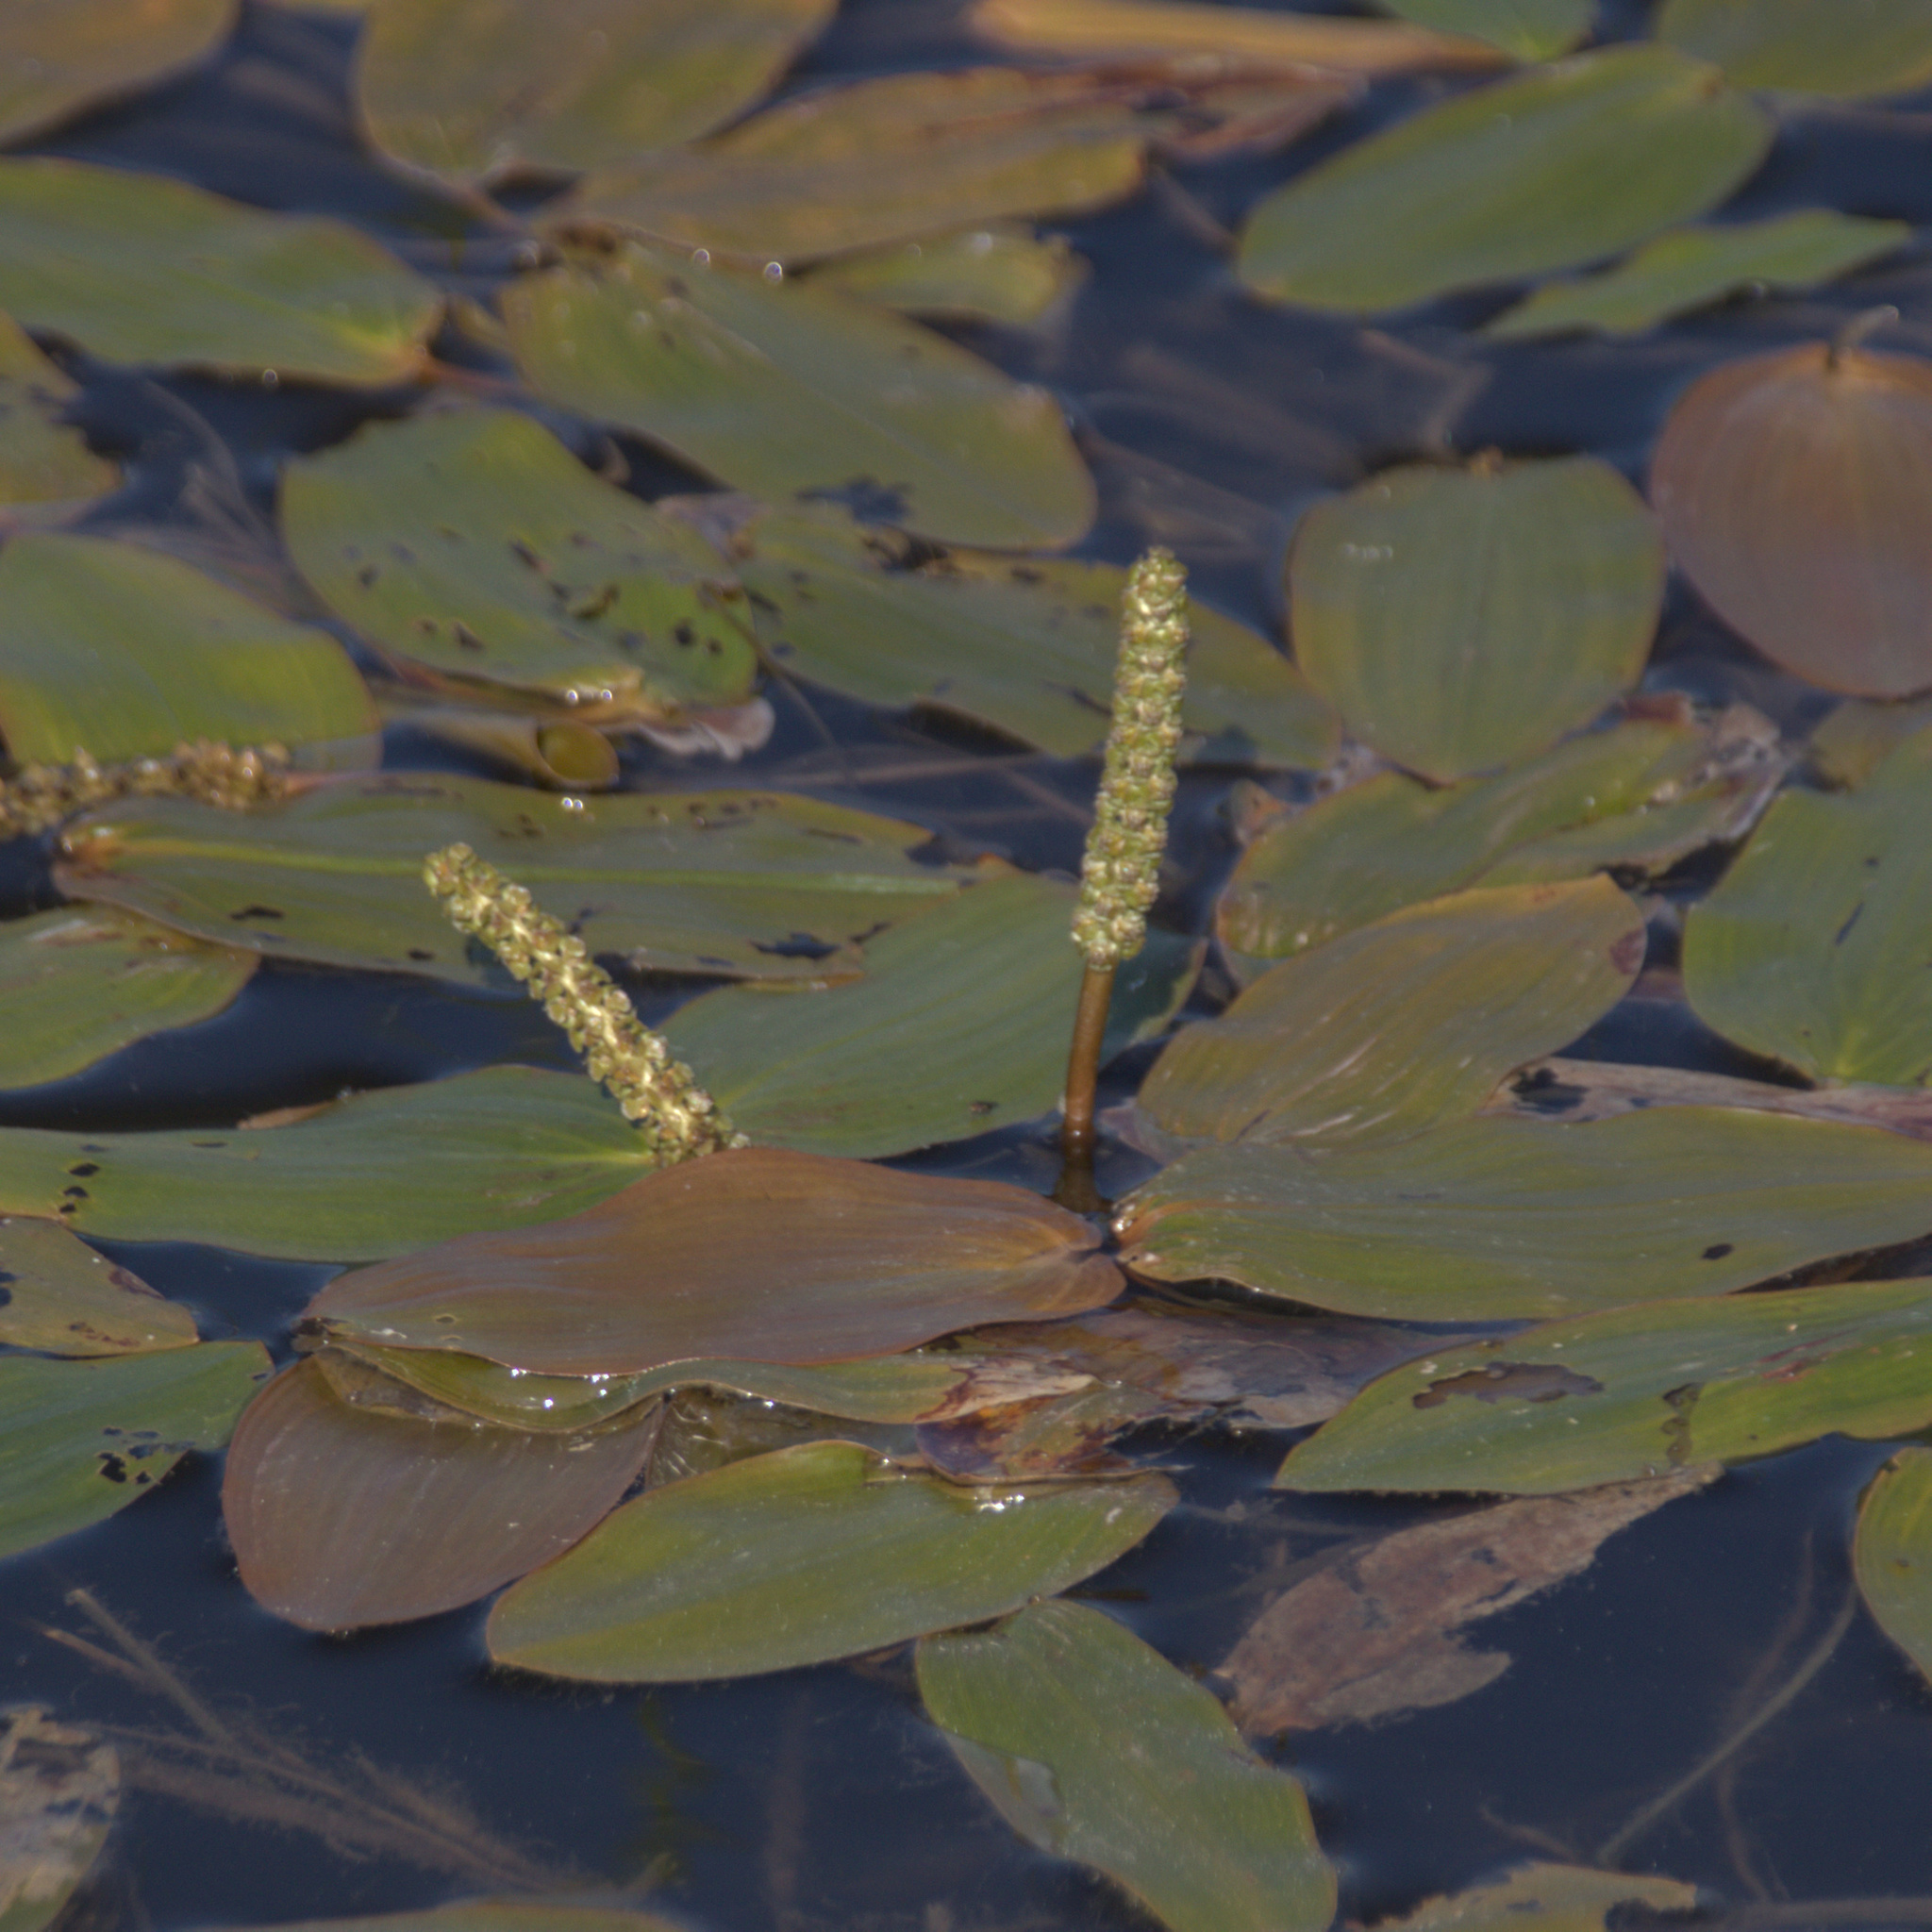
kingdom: Plantae
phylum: Tracheophyta
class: Liliopsida
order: Alismatales
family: Potamogetonaceae
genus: Potamogeton
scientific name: Potamogeton natans
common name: Broad-leaved pondweed
